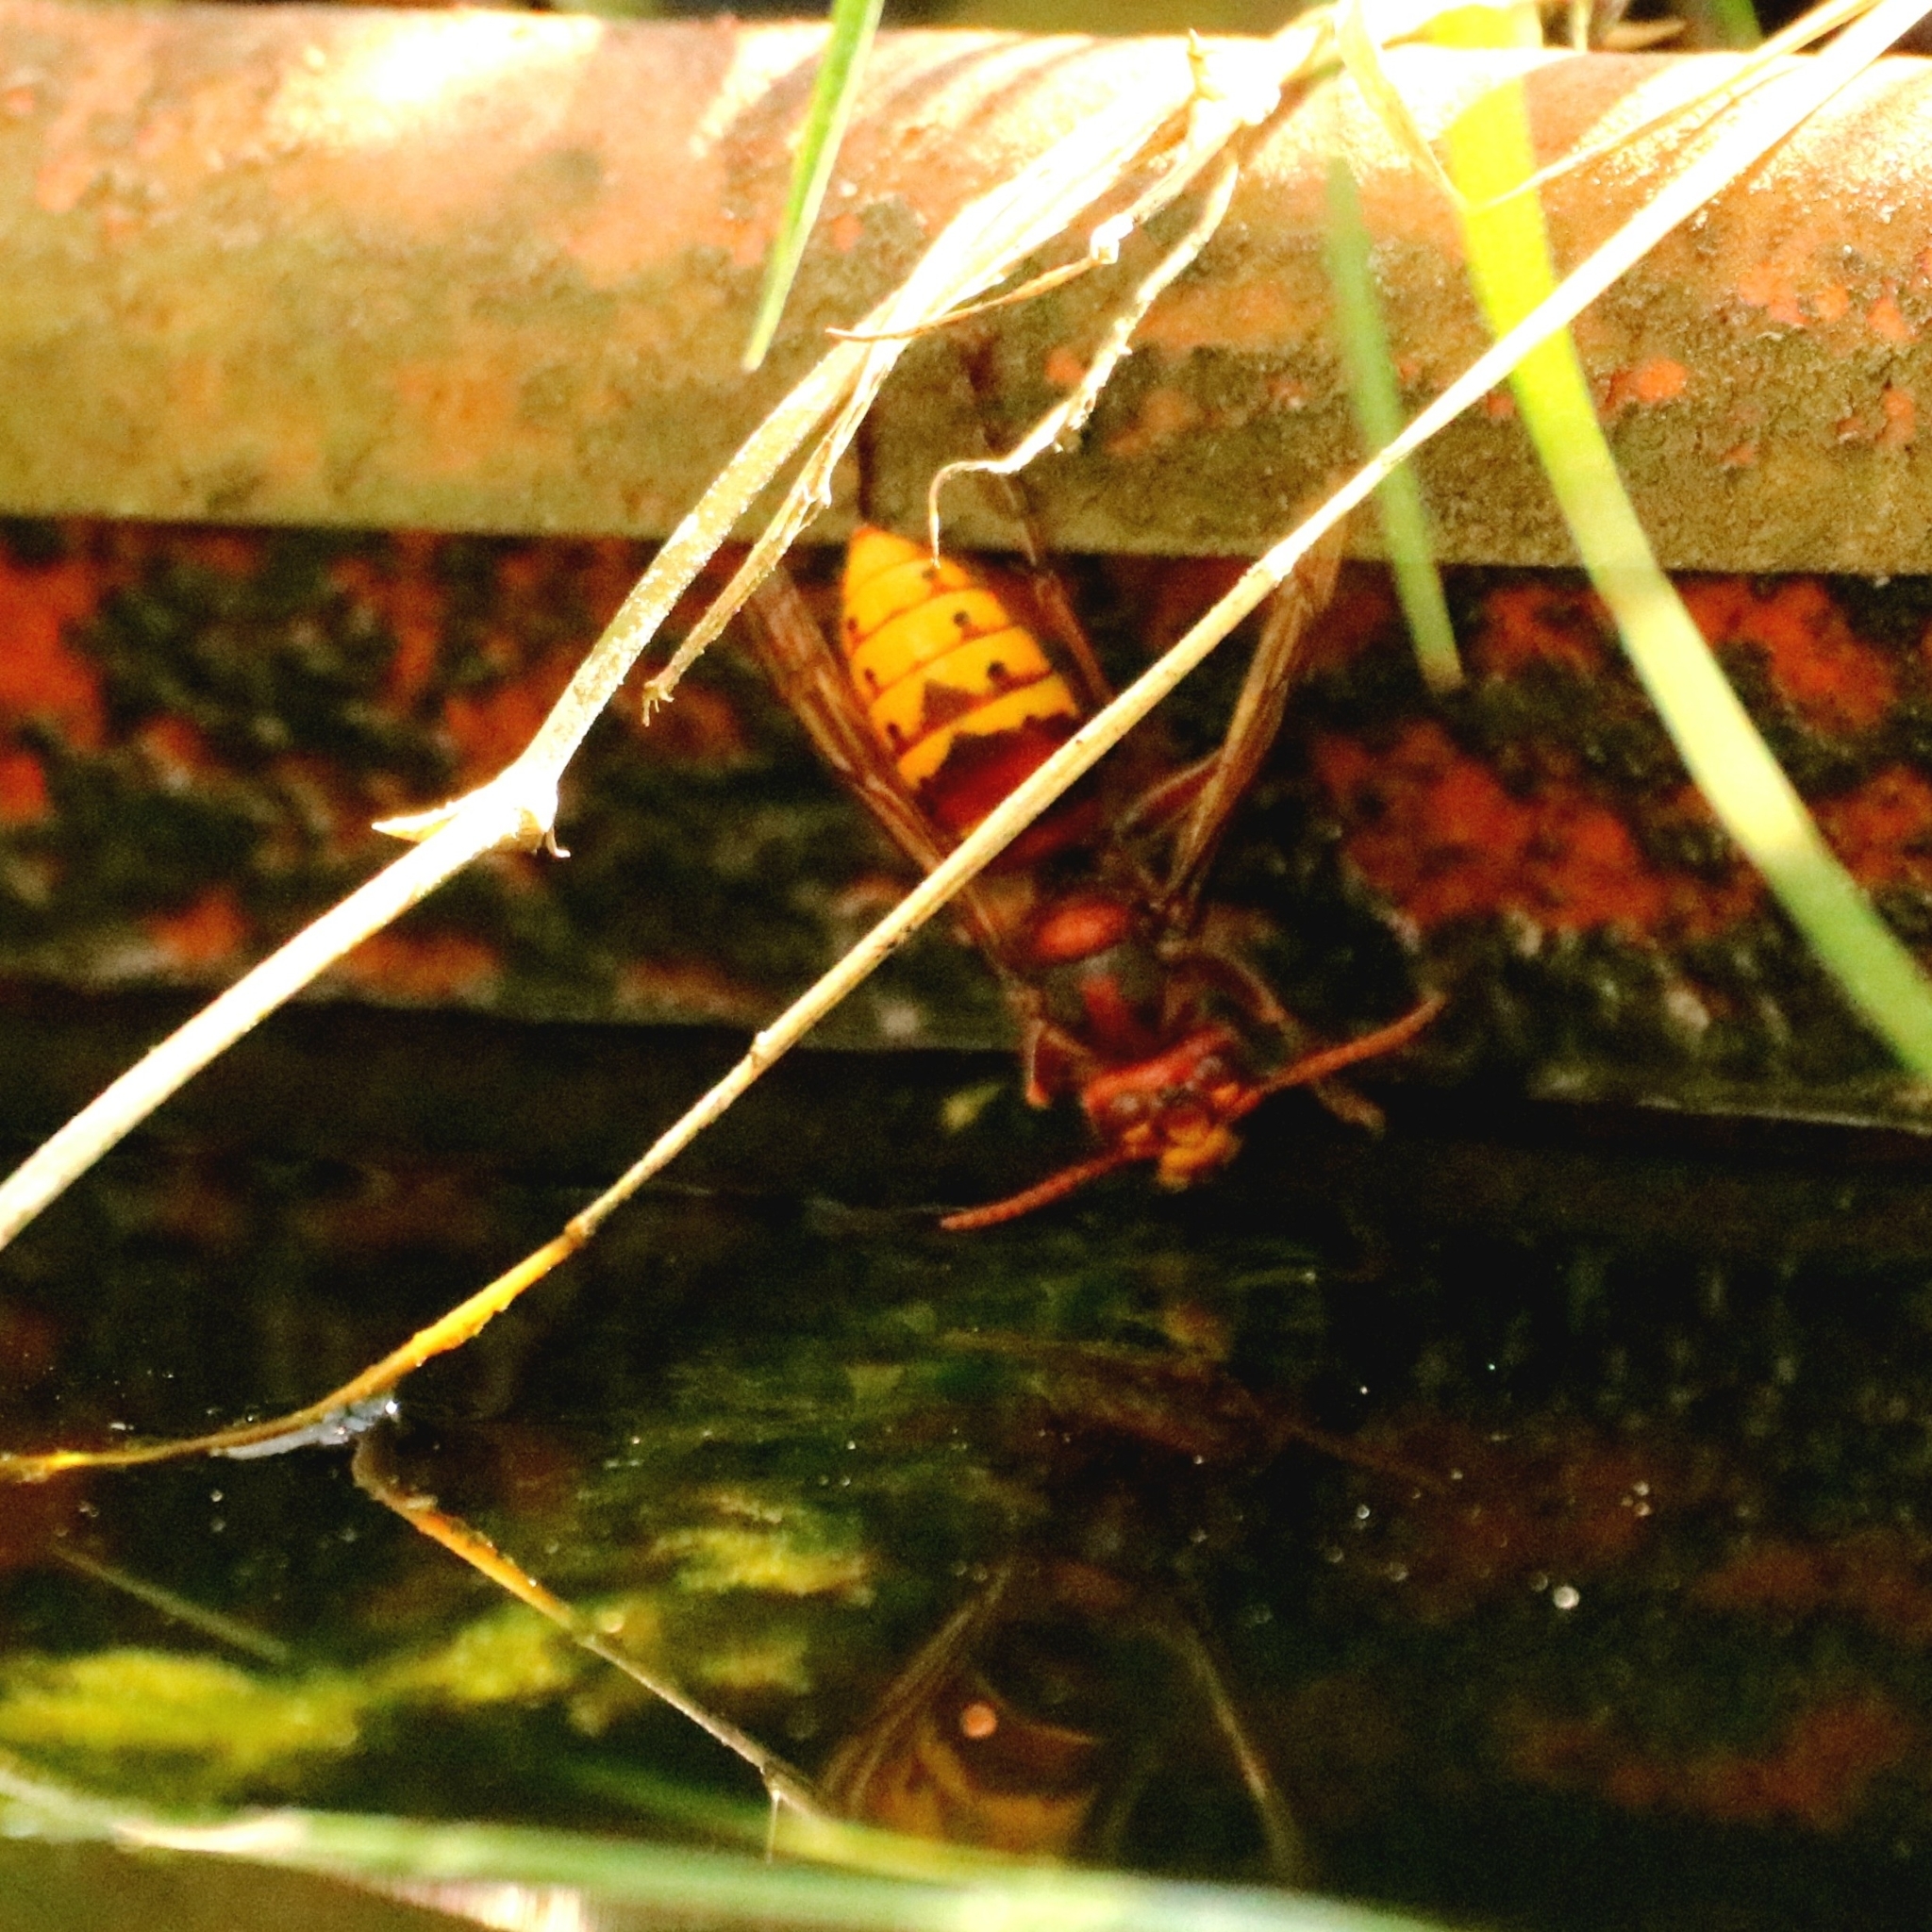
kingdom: Animalia
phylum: Arthropoda
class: Insecta
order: Hymenoptera
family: Vespidae
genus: Vespa
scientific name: Vespa crabro
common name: Hornet
